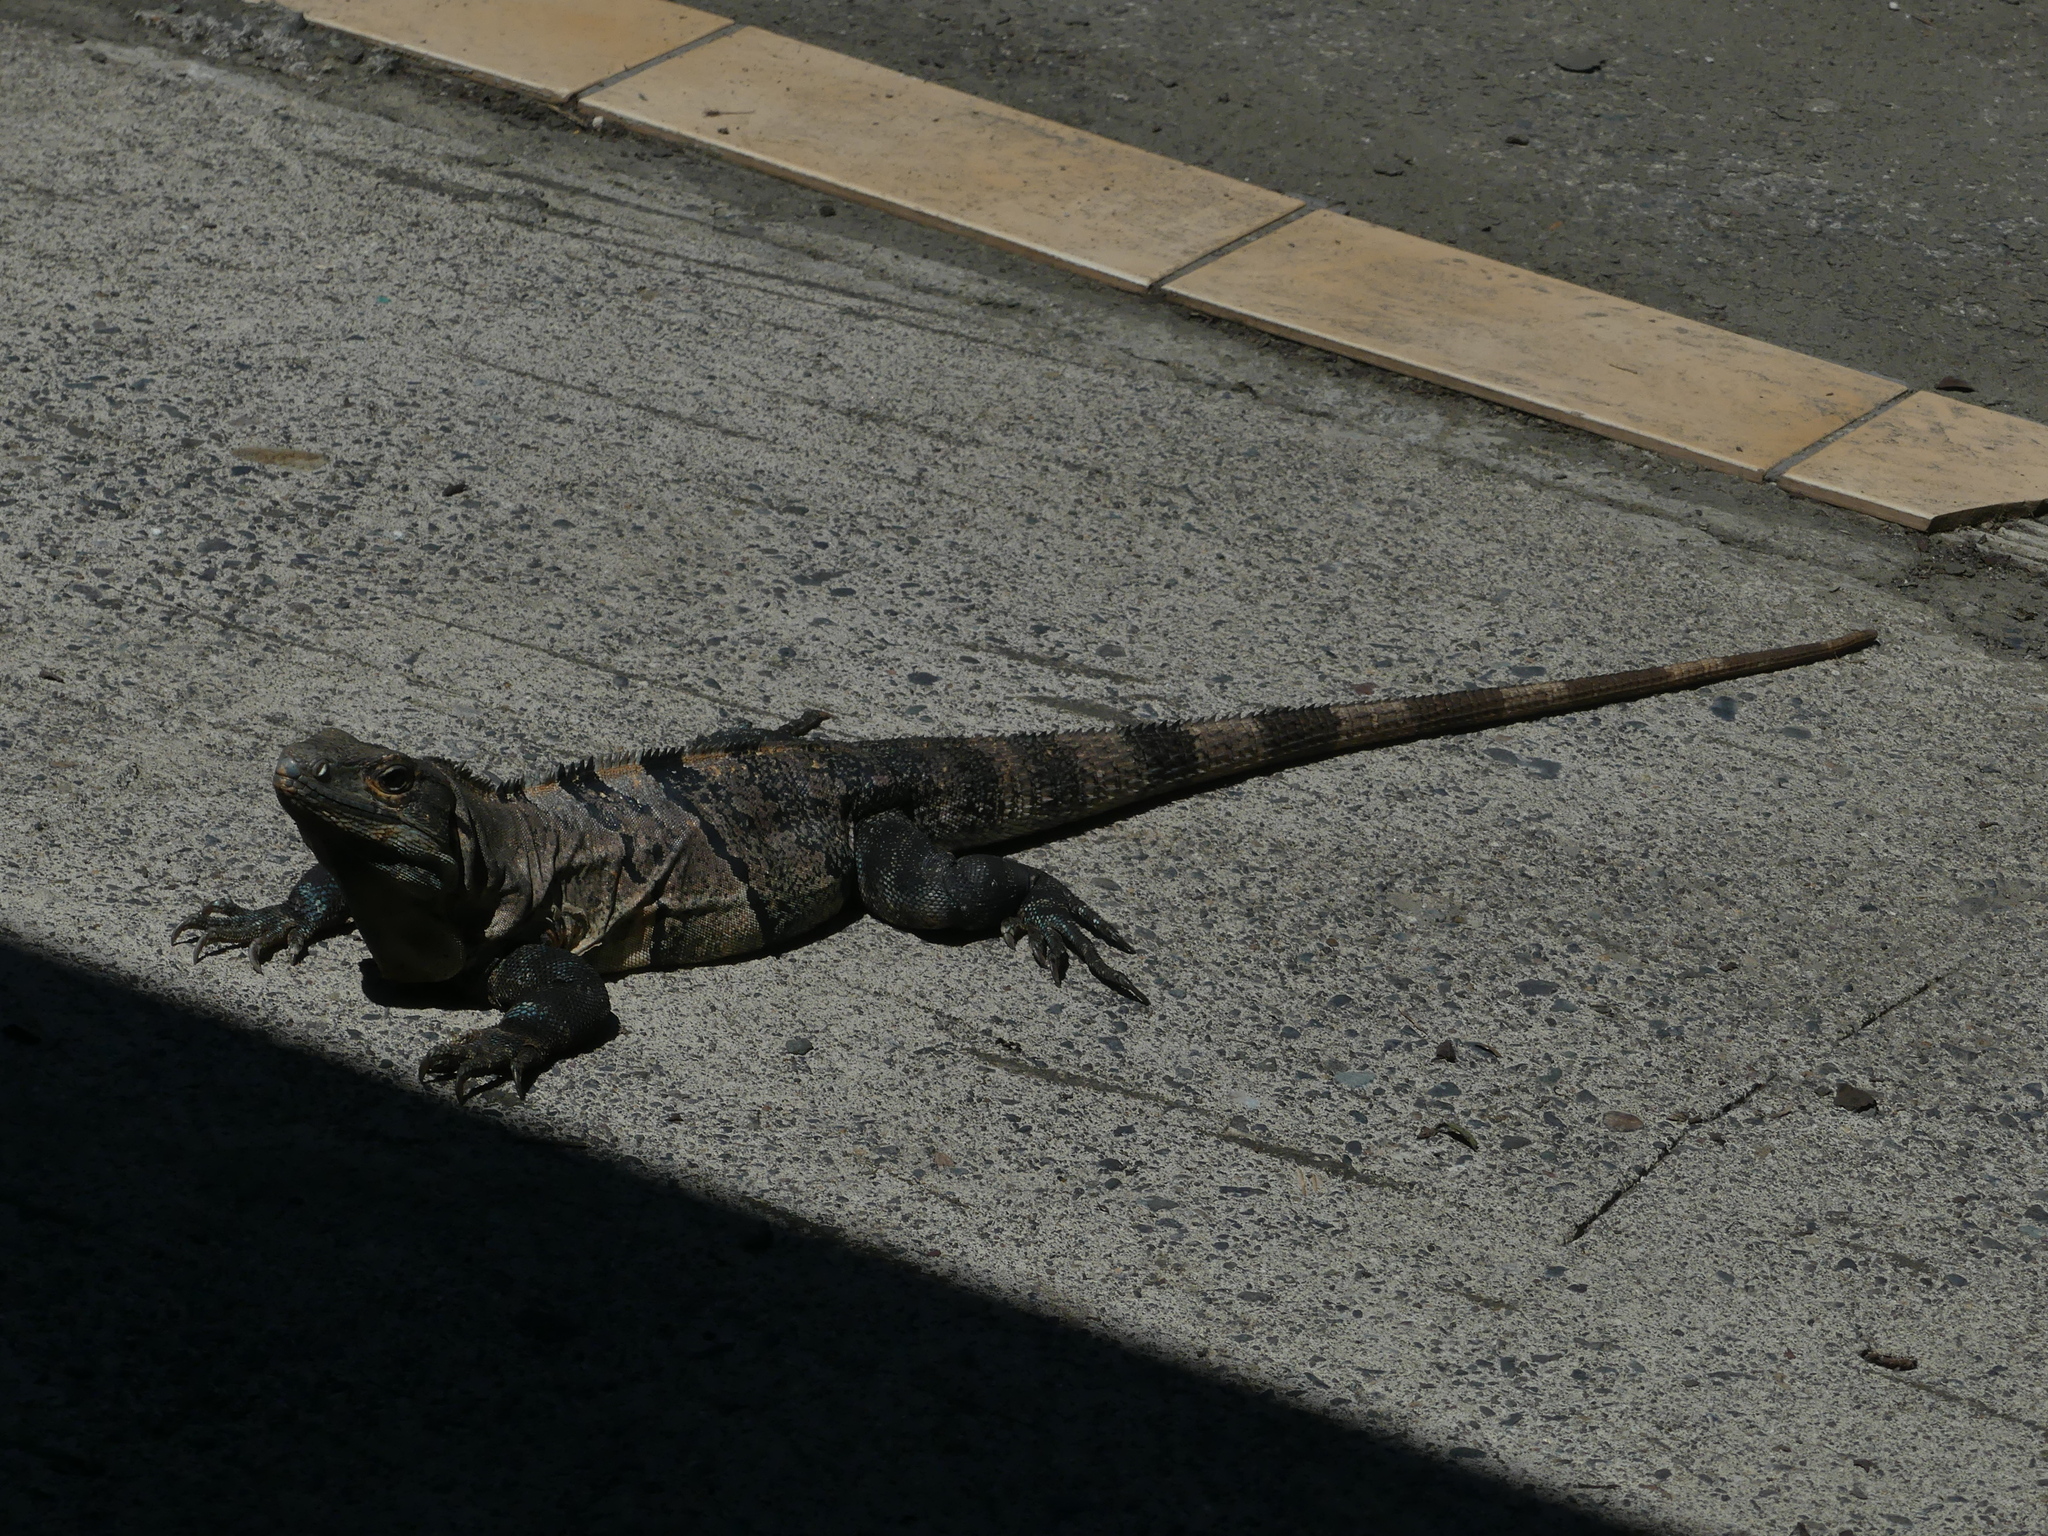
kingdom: Animalia
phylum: Chordata
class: Squamata
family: Iguanidae
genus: Ctenosaura
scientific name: Ctenosaura similis
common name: Black spiny-tailed iguana
